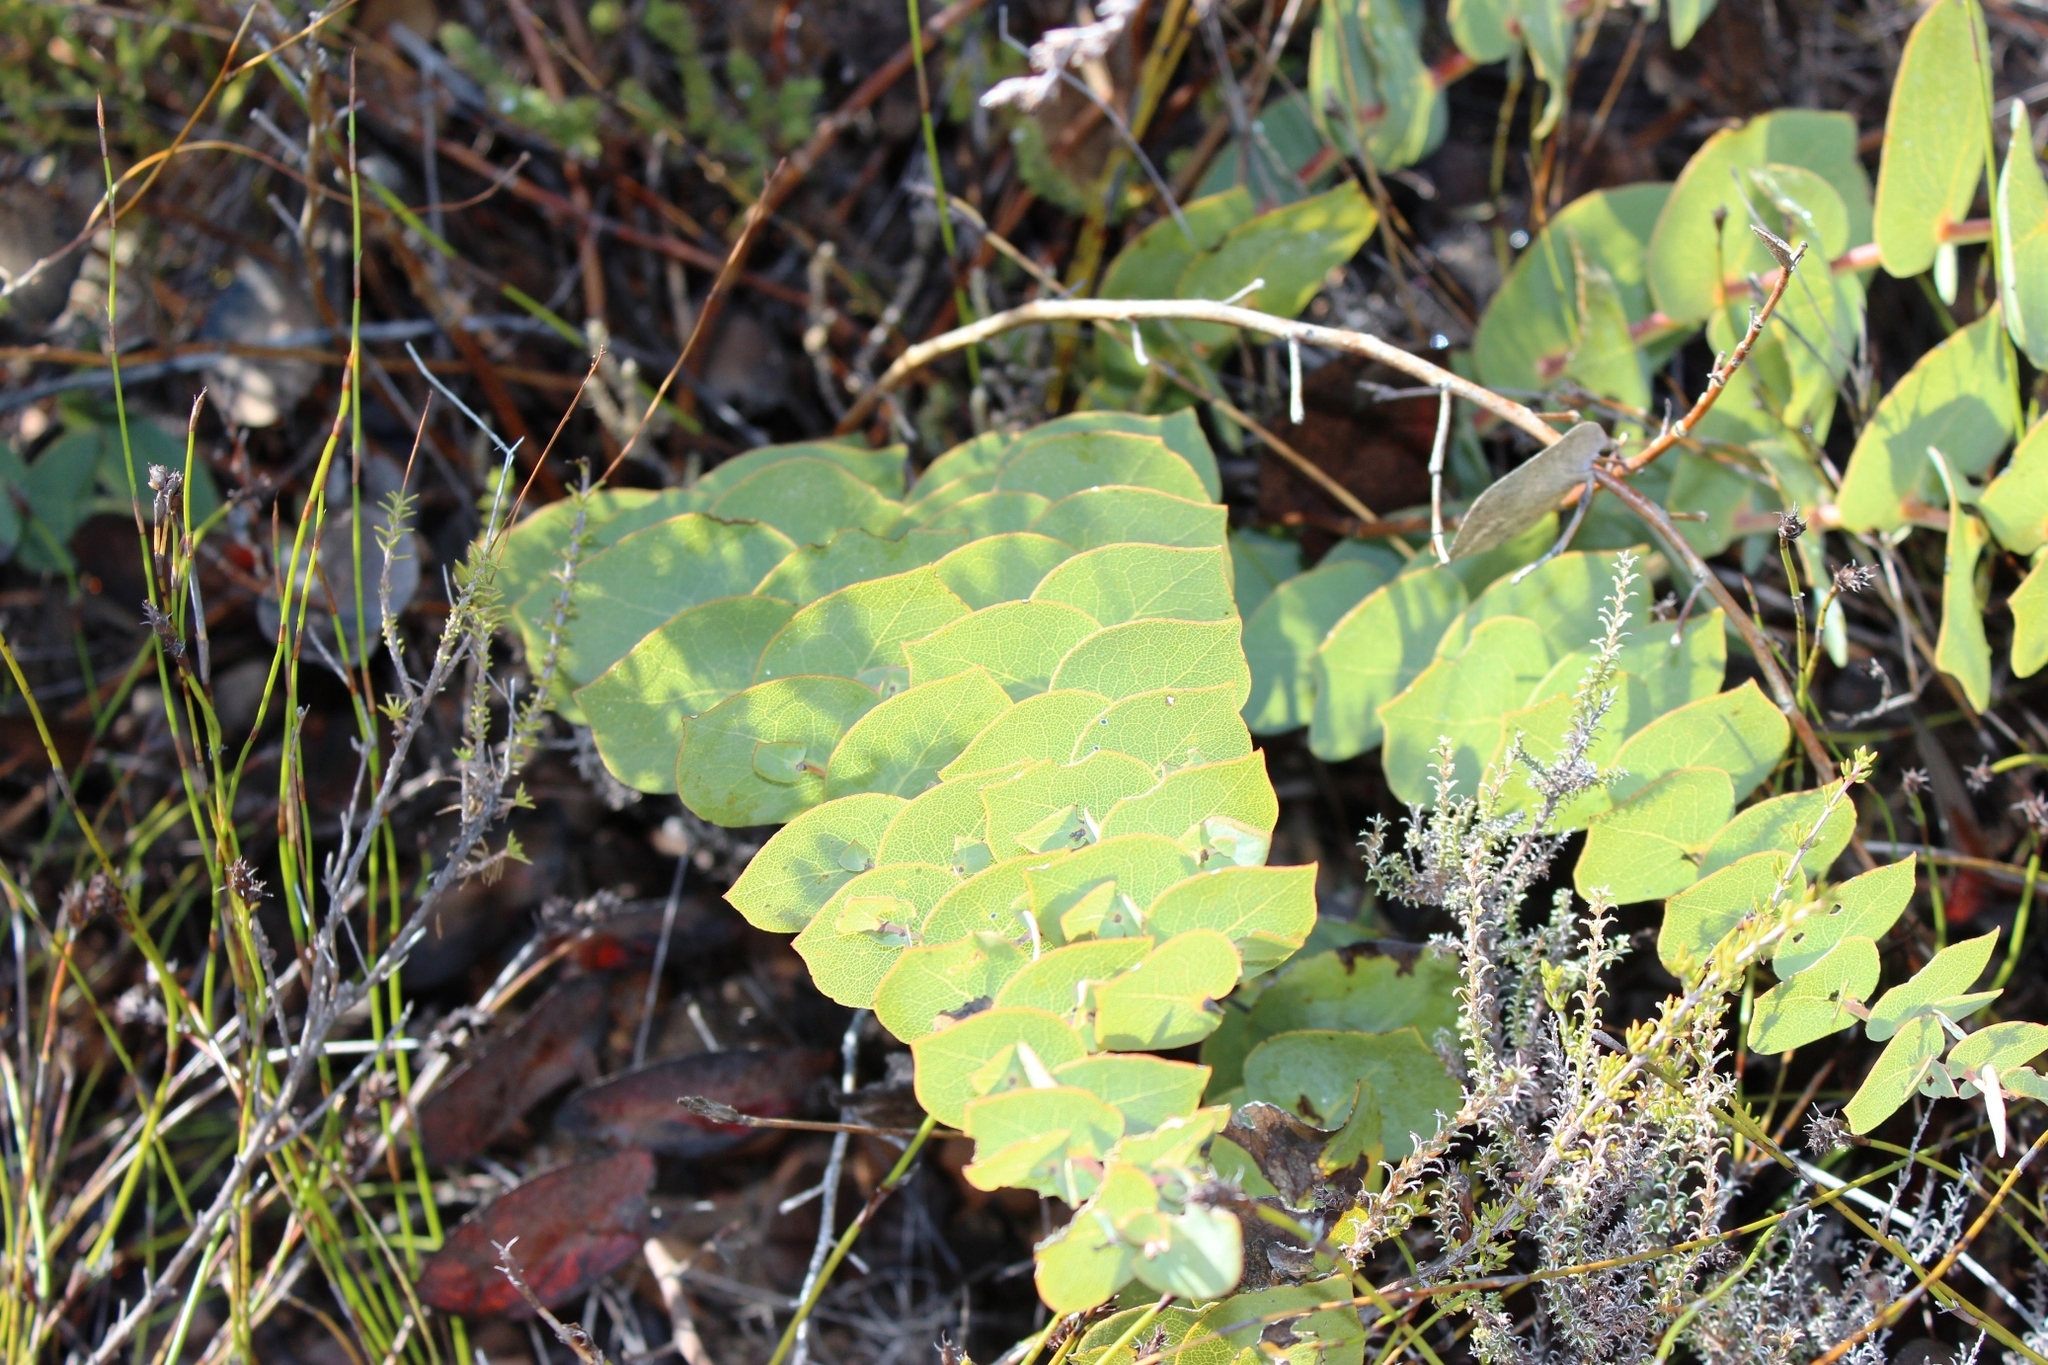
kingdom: Plantae
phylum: Tracheophyta
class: Magnoliopsida
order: Fabales
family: Fabaceae
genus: Rafnia
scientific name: Rafnia acuminata
